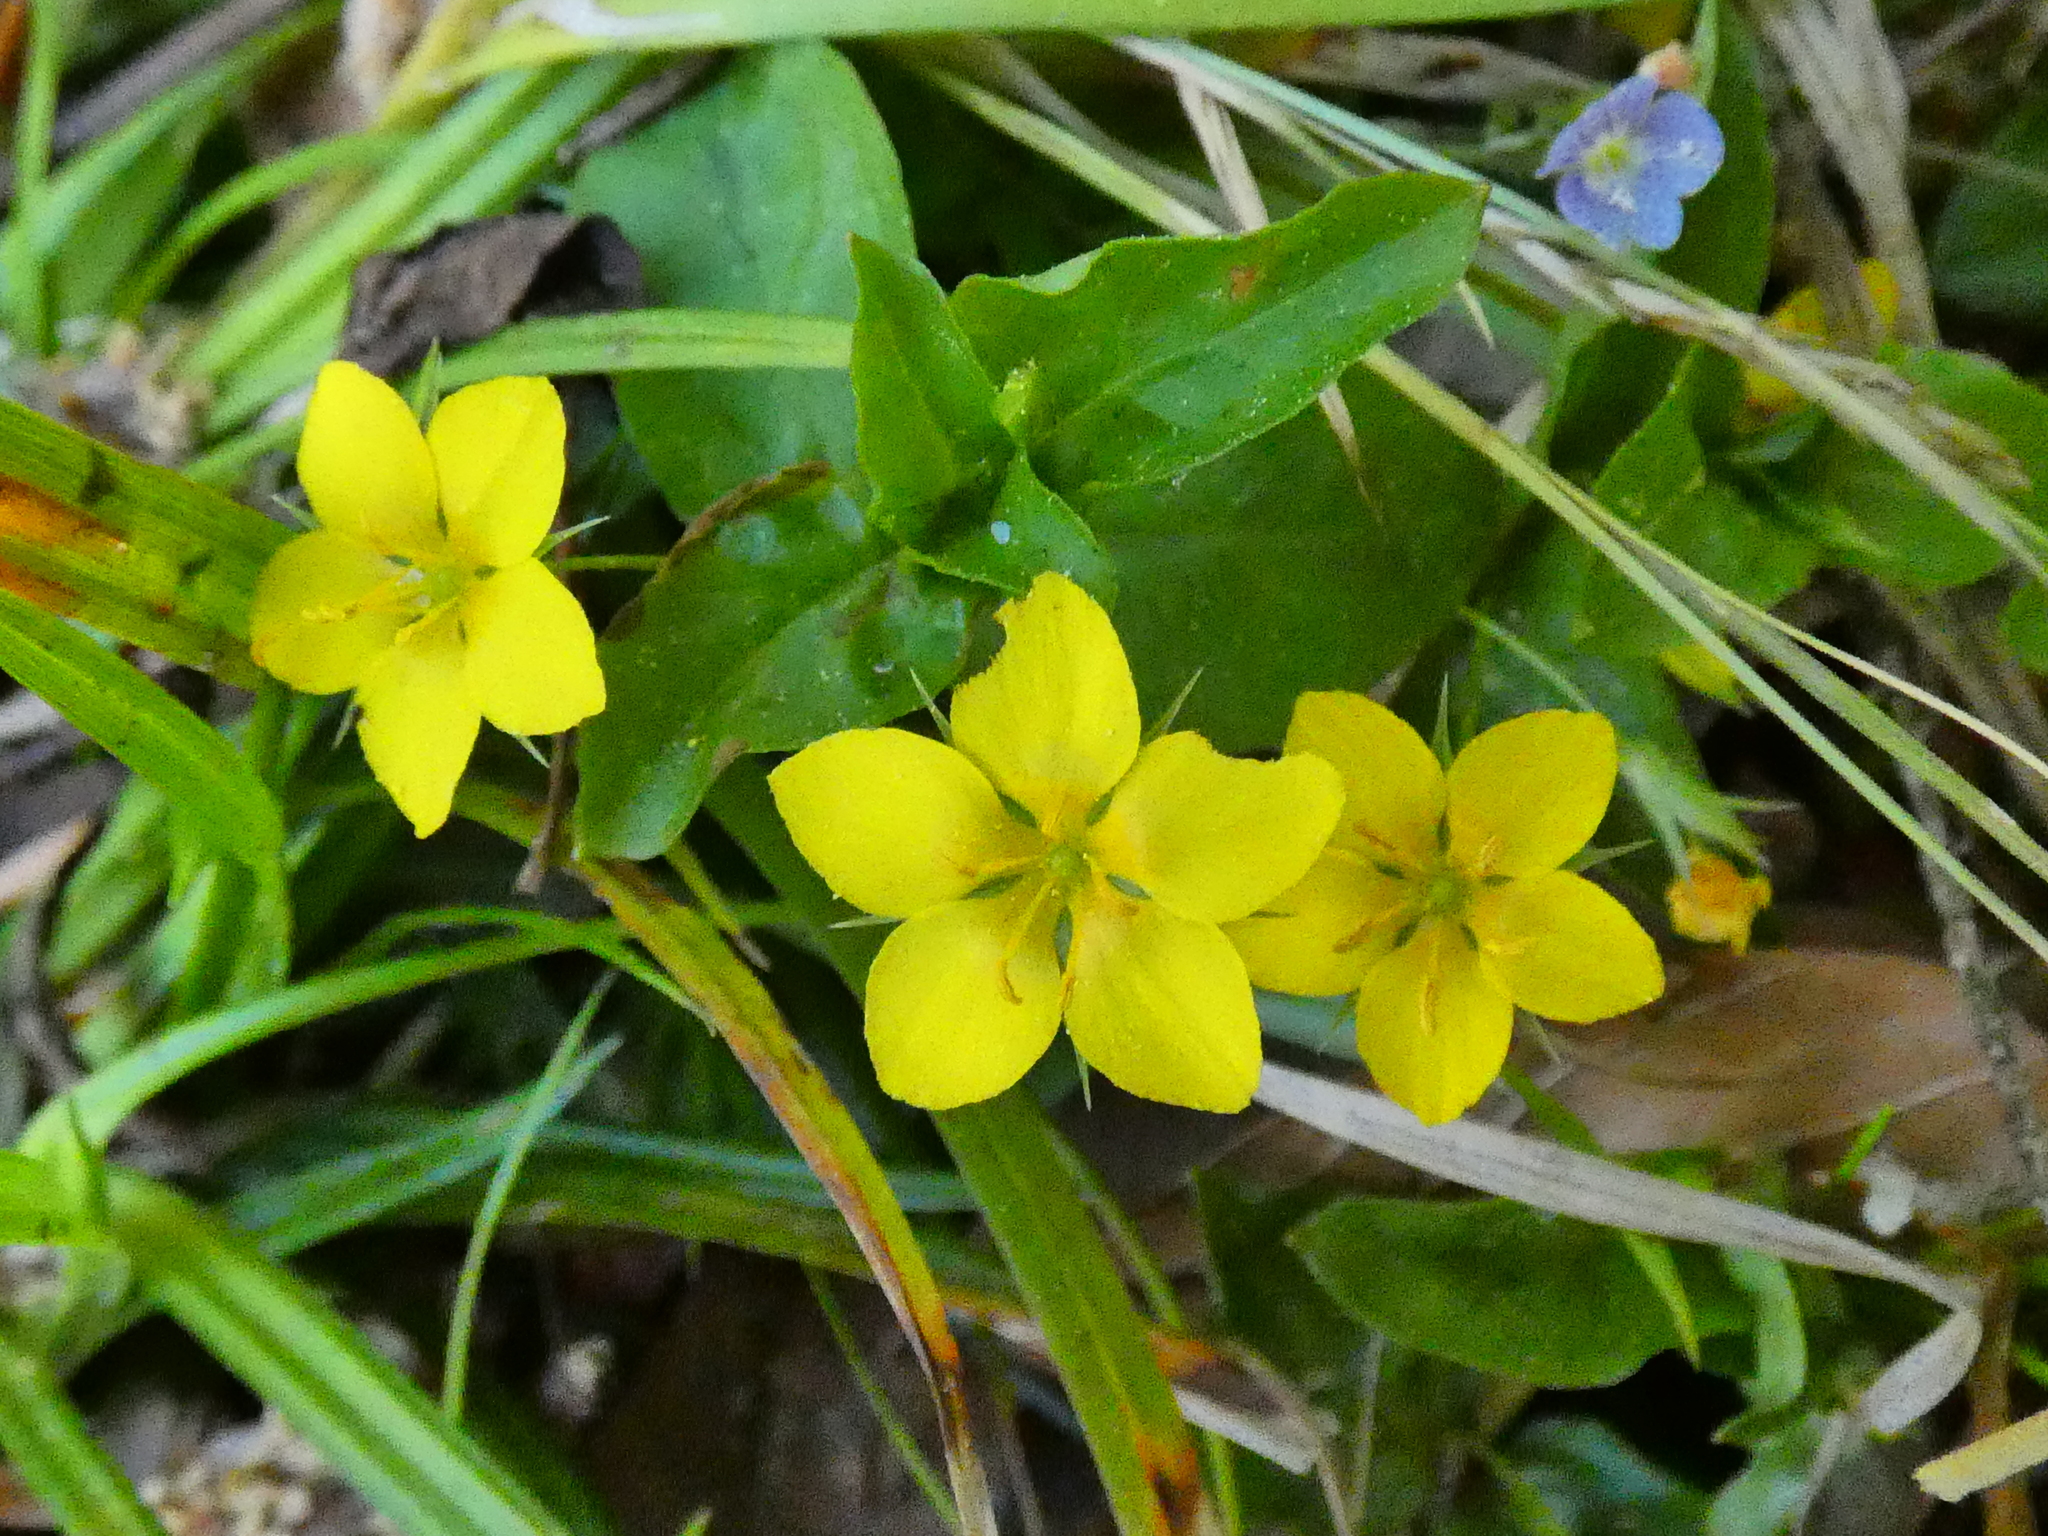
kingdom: Plantae
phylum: Tracheophyta
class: Magnoliopsida
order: Ericales
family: Primulaceae
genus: Lysimachia
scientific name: Lysimachia nemorum
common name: Yellow pimpernel
